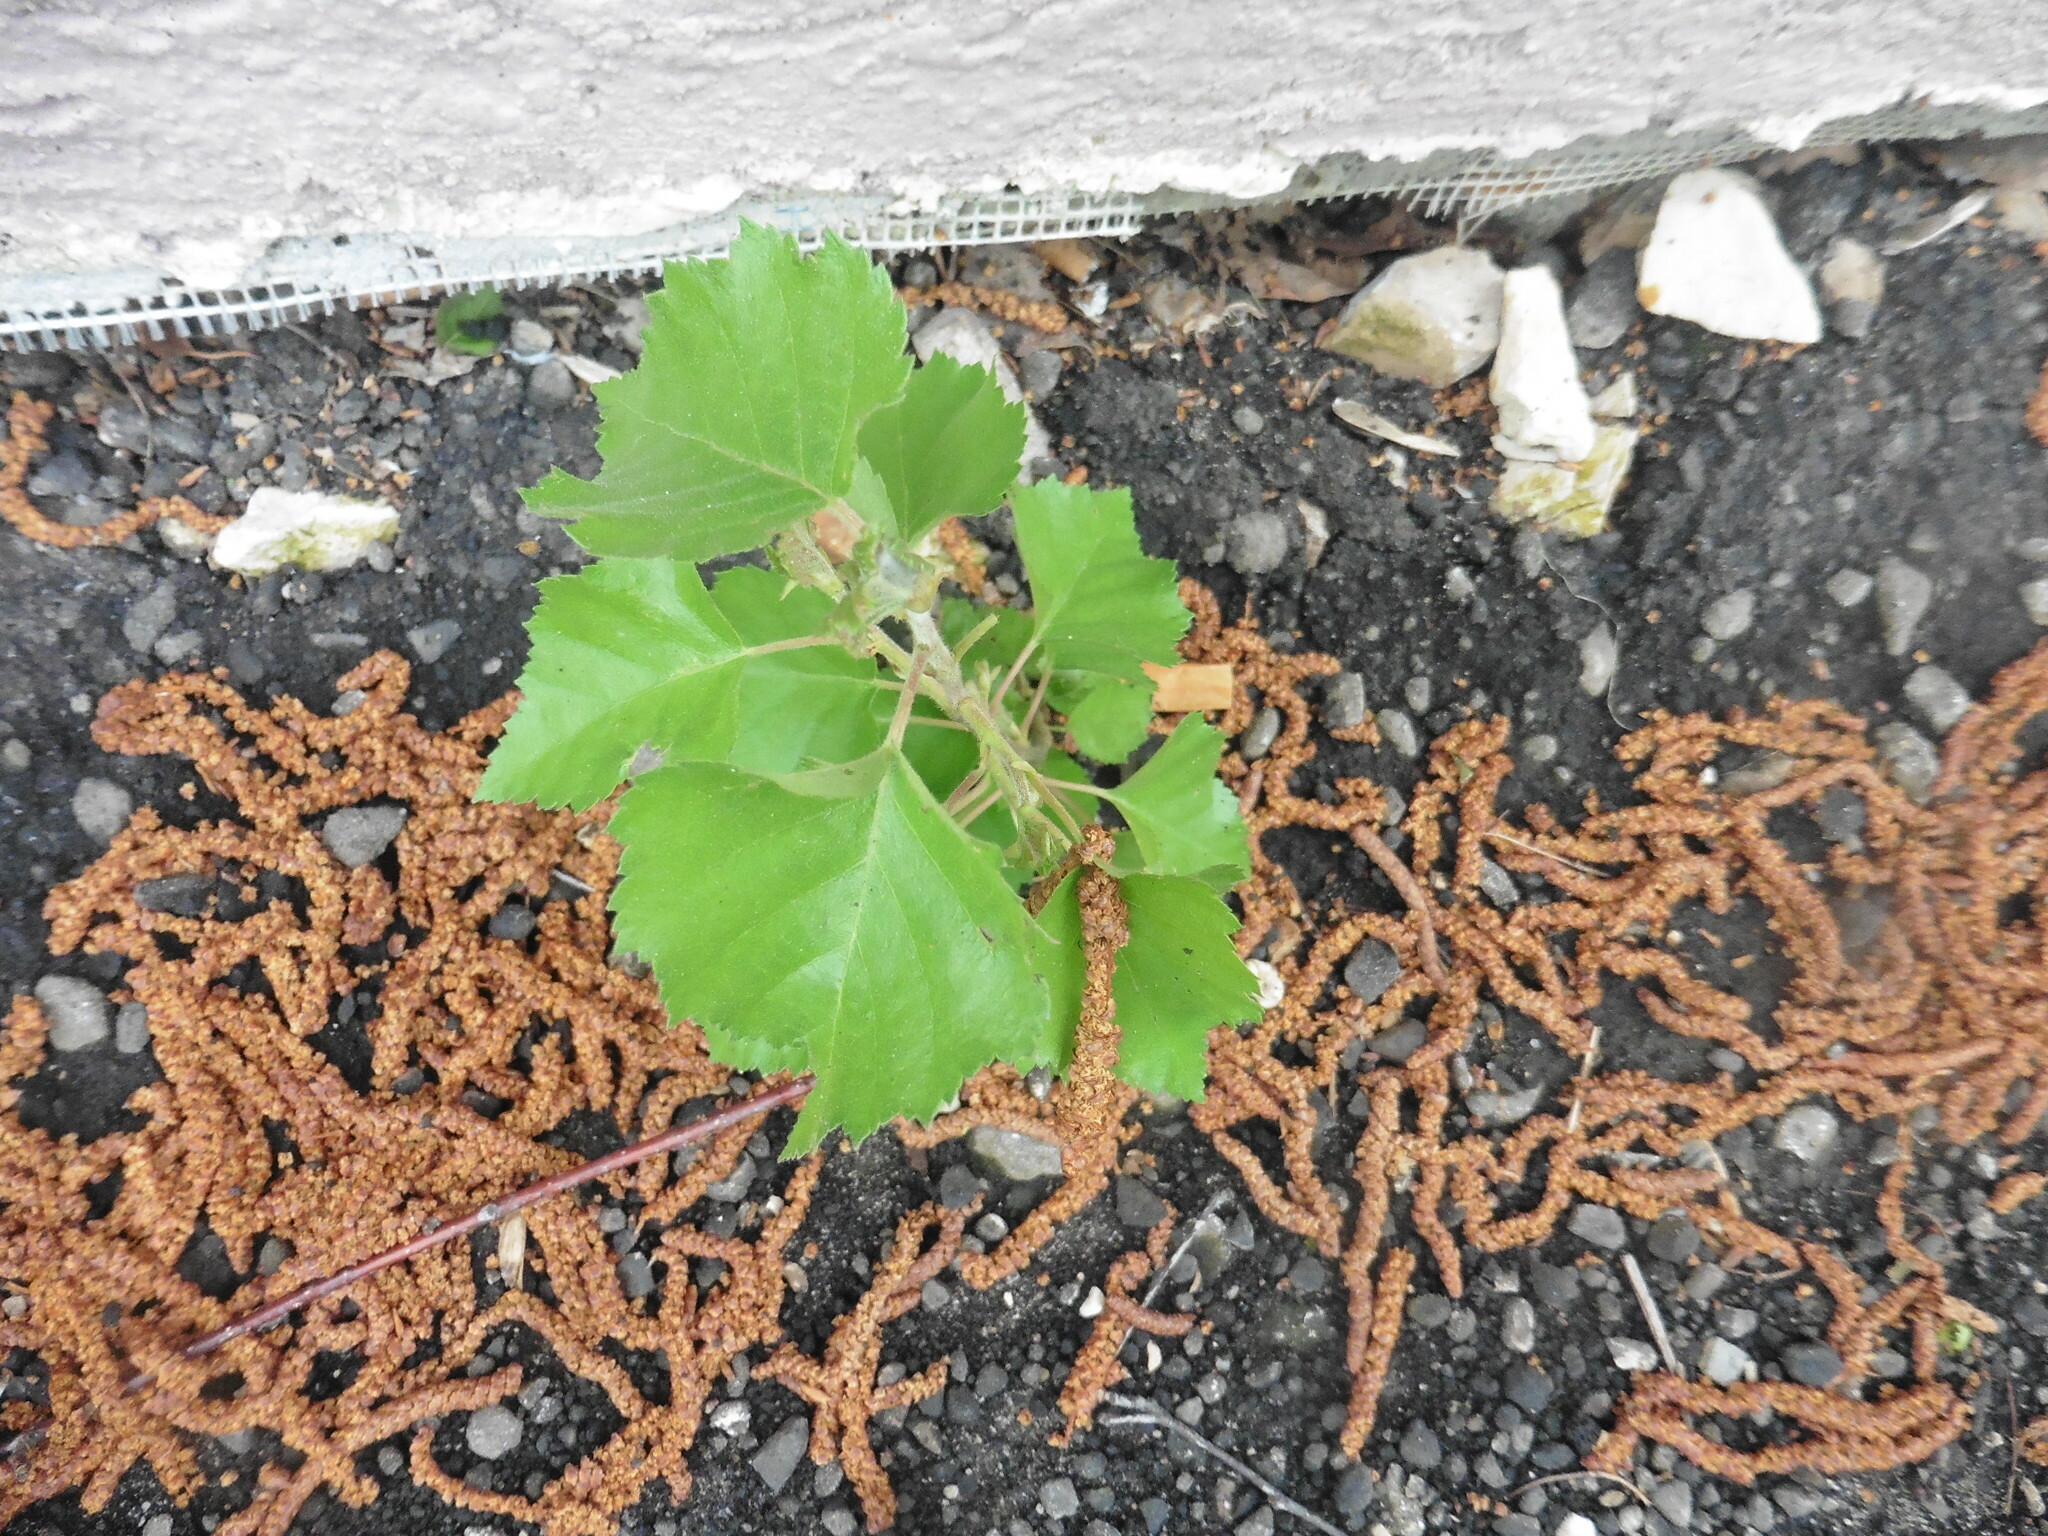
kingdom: Plantae
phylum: Tracheophyta
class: Magnoliopsida
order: Fagales
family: Betulaceae
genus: Betula
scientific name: Betula pendula
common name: Silver birch
